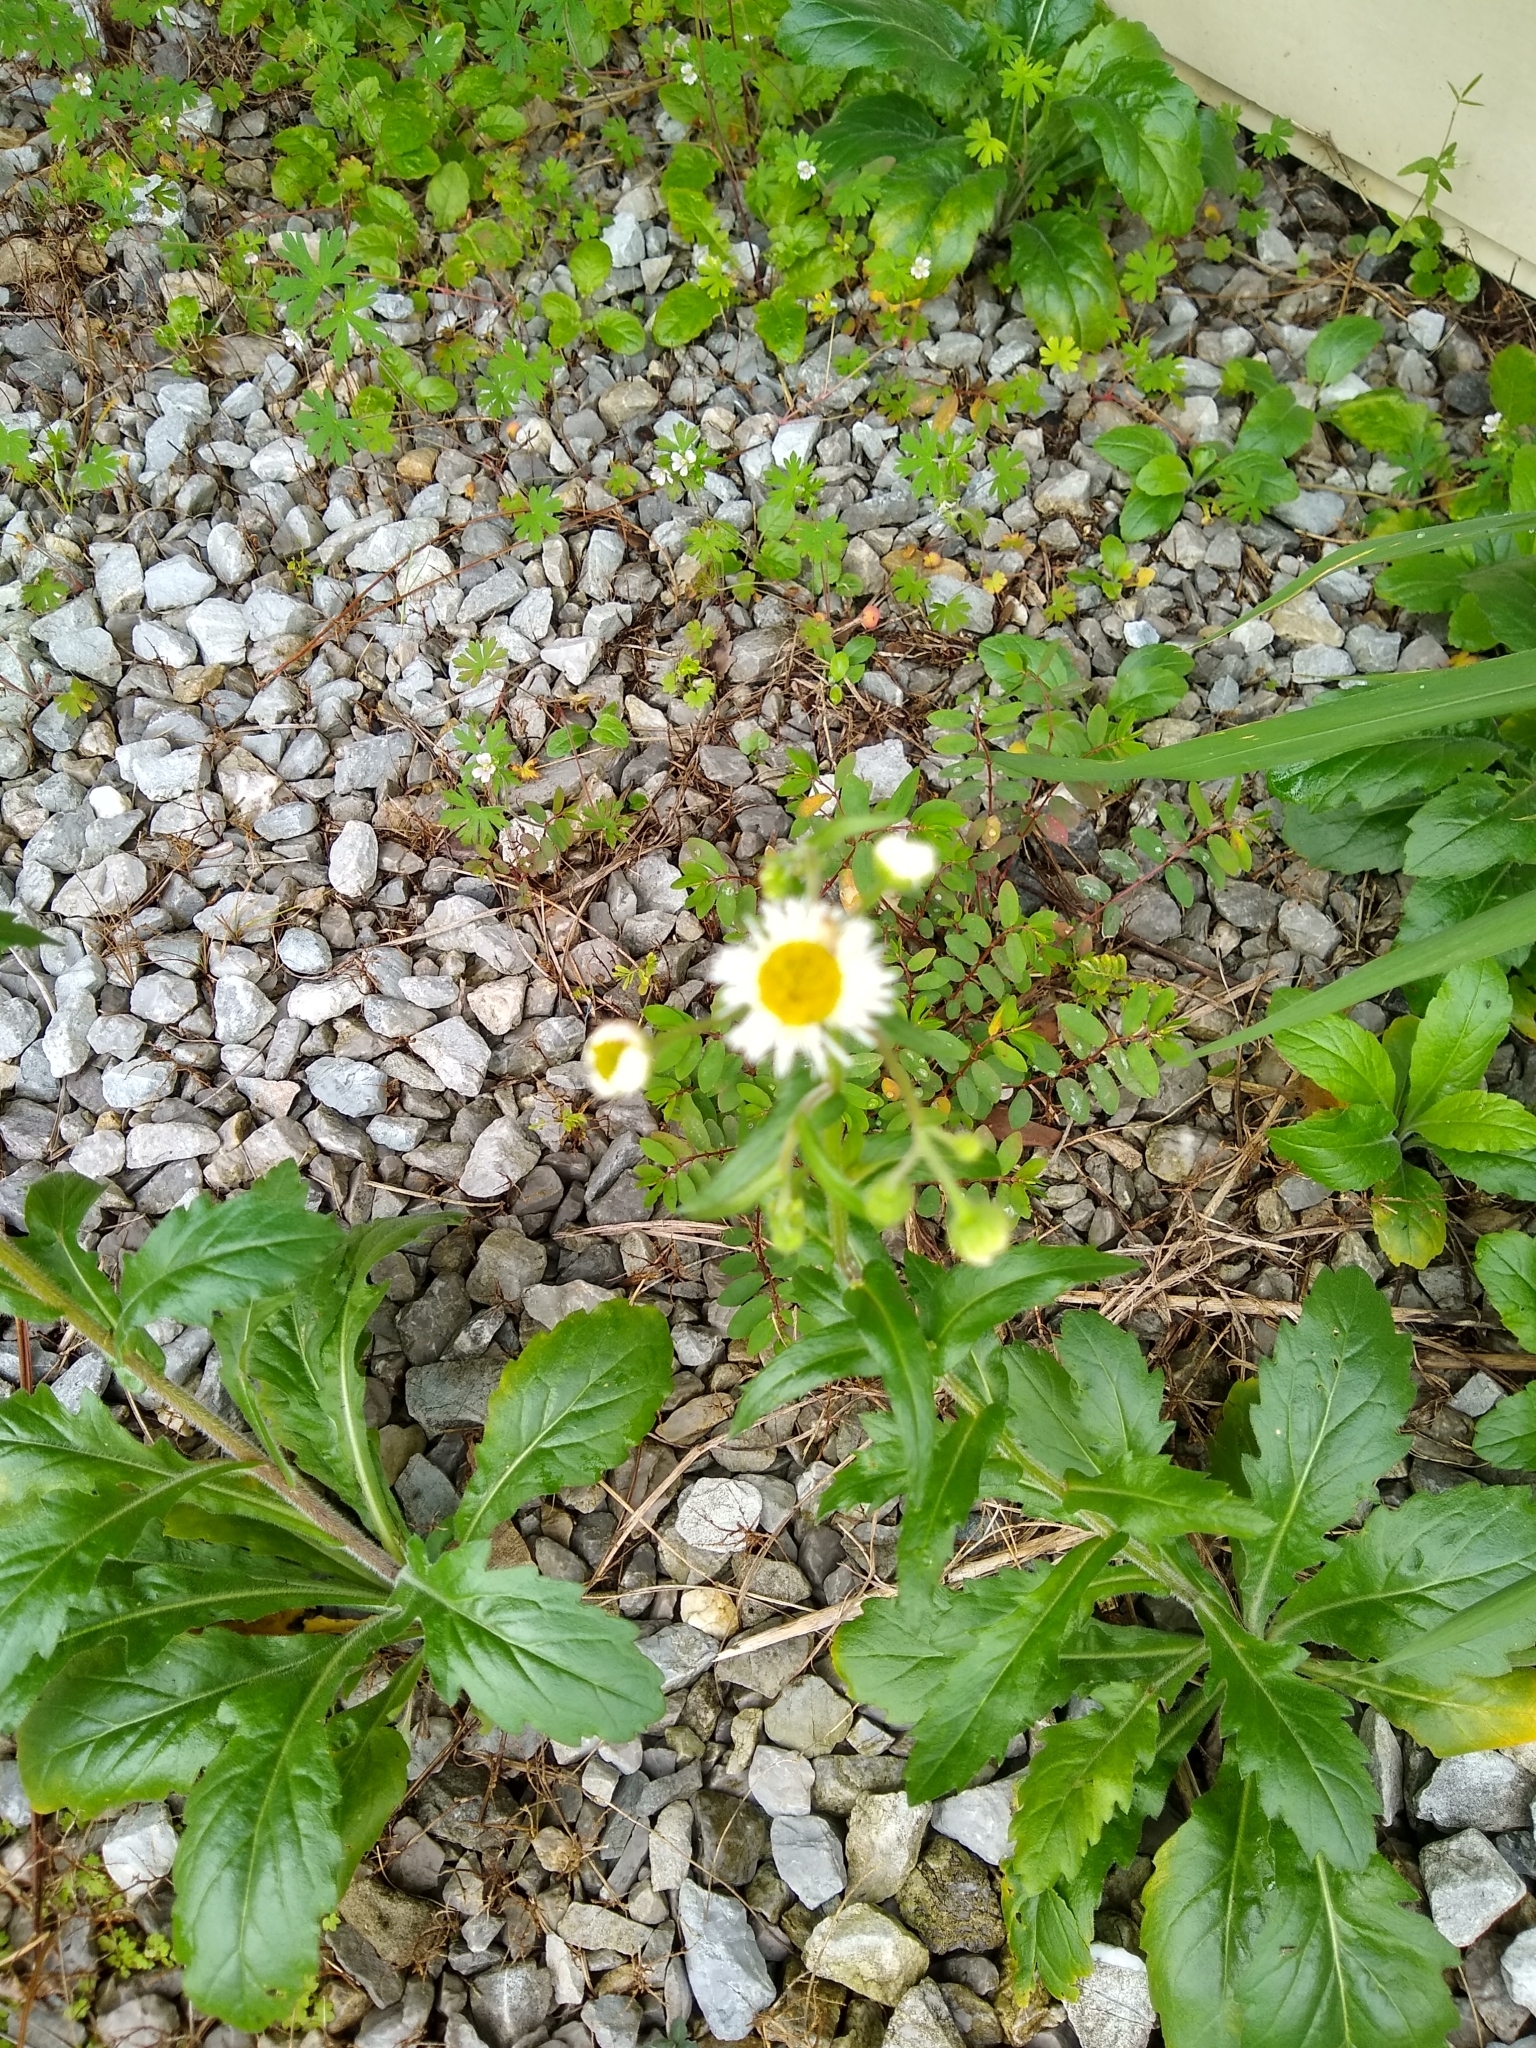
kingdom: Plantae
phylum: Tracheophyta
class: Magnoliopsida
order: Asterales
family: Asteraceae
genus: Erigeron
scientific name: Erigeron philadelphicus
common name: Robin's-plantain
